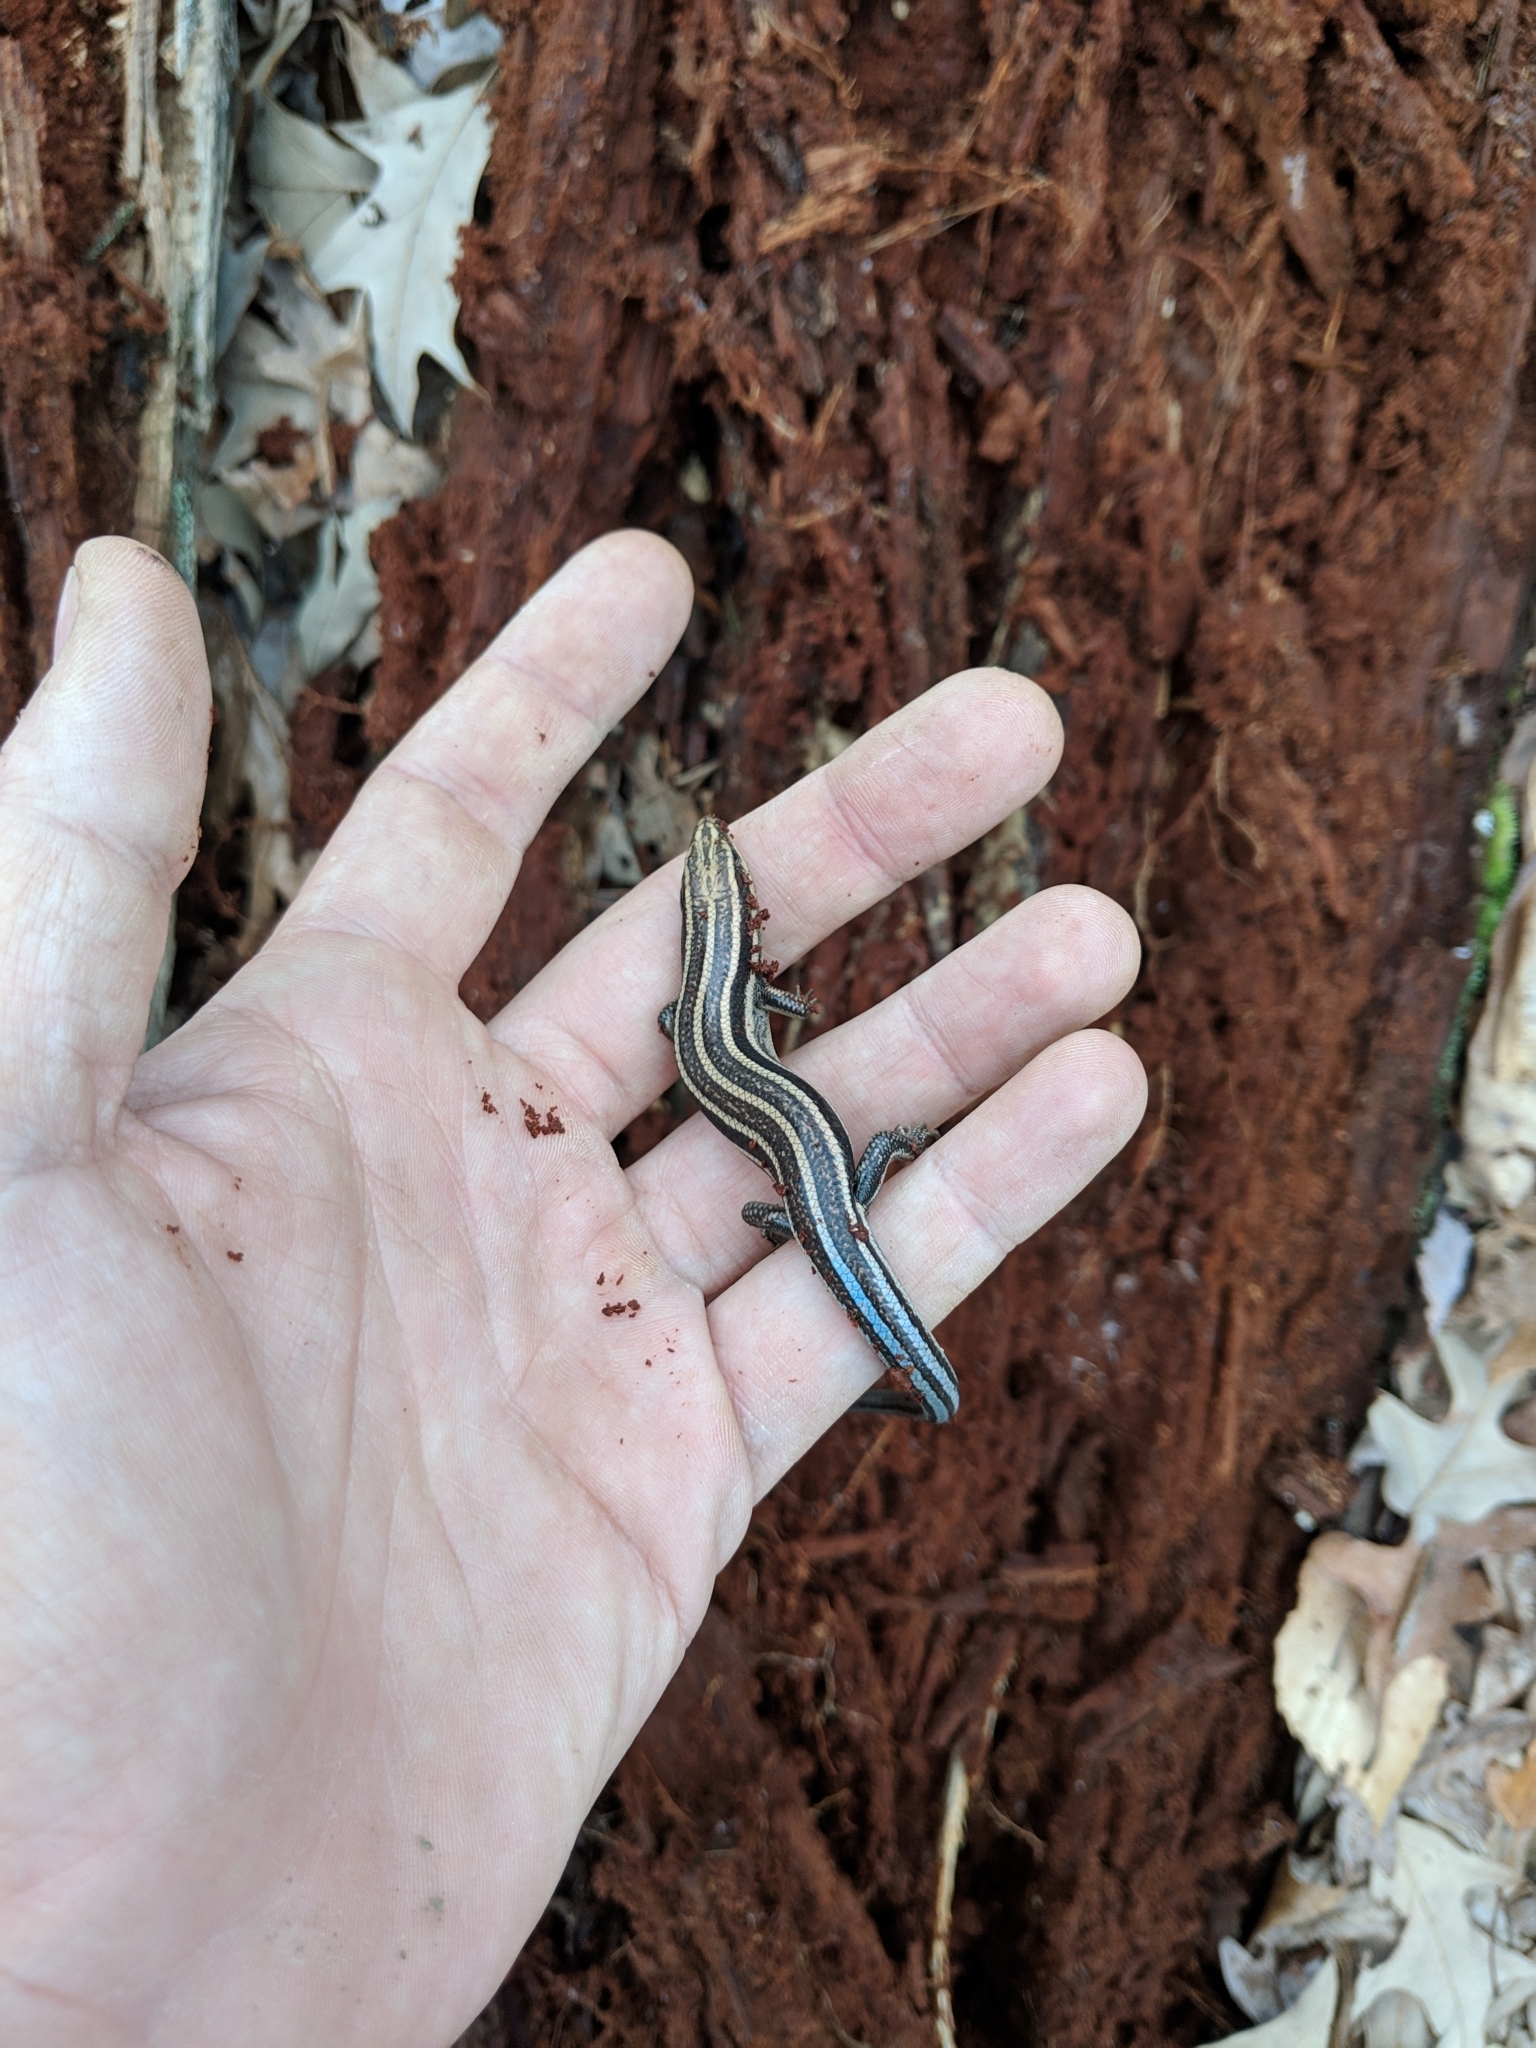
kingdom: Animalia
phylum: Chordata
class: Squamata
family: Scincidae
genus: Plestiodon
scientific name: Plestiodon fasciatus
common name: Five-lined skink
